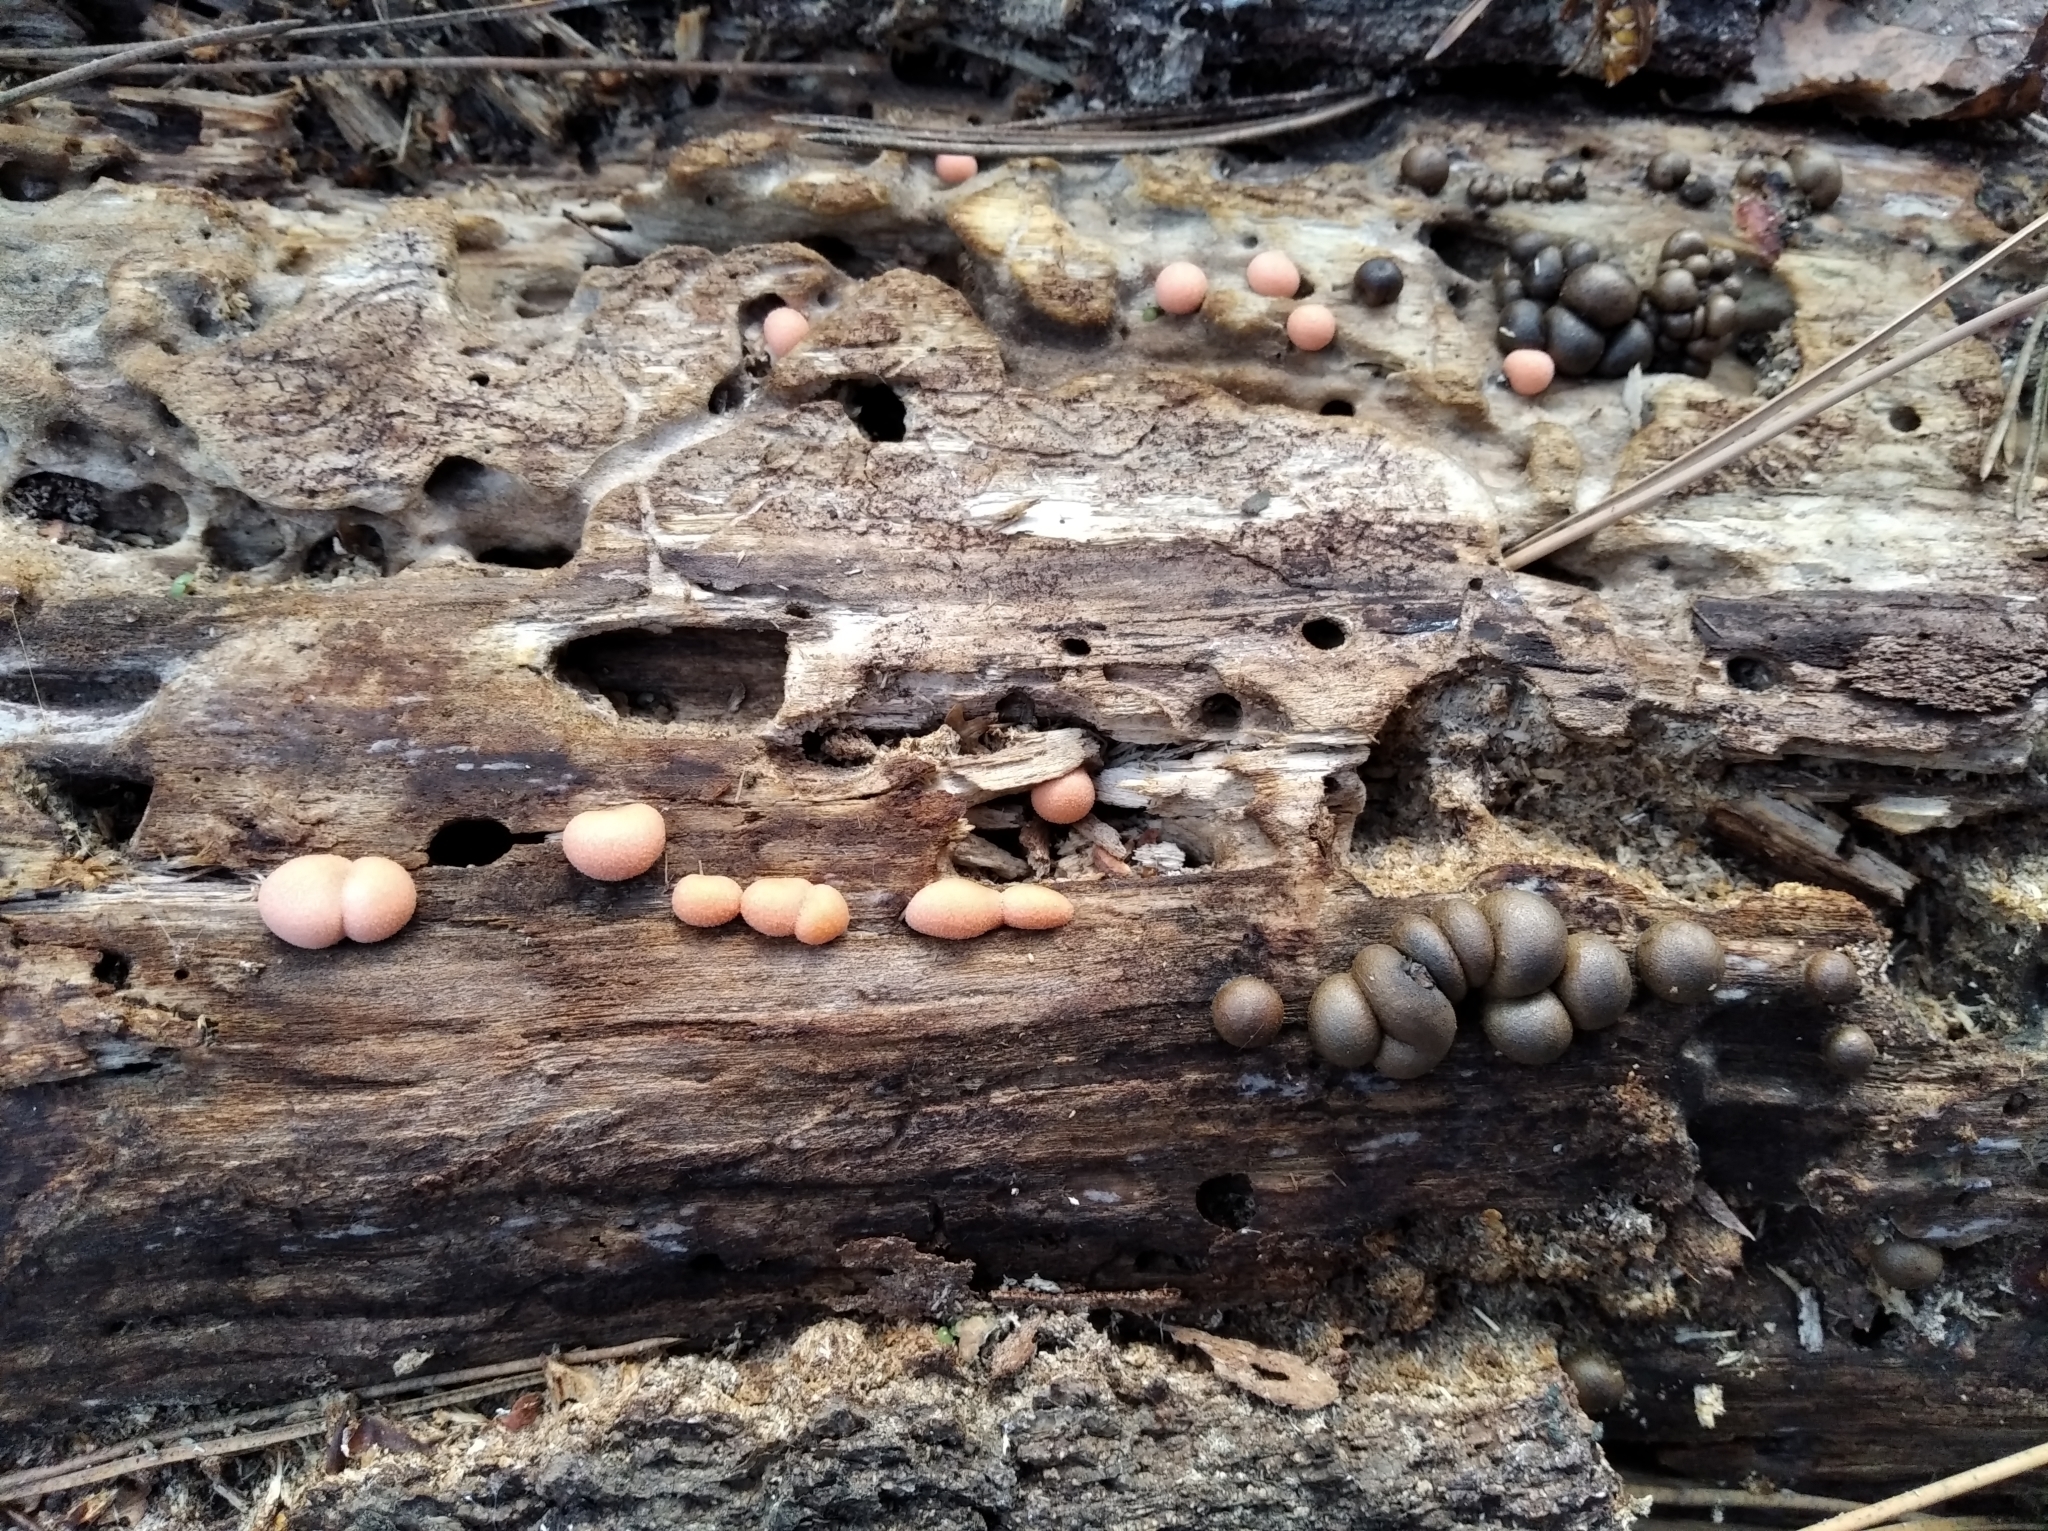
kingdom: Protozoa
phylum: Mycetozoa
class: Myxomycetes
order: Cribrariales
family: Tubiferaceae
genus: Lycogala
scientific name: Lycogala epidendrum
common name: Wolf's milk
